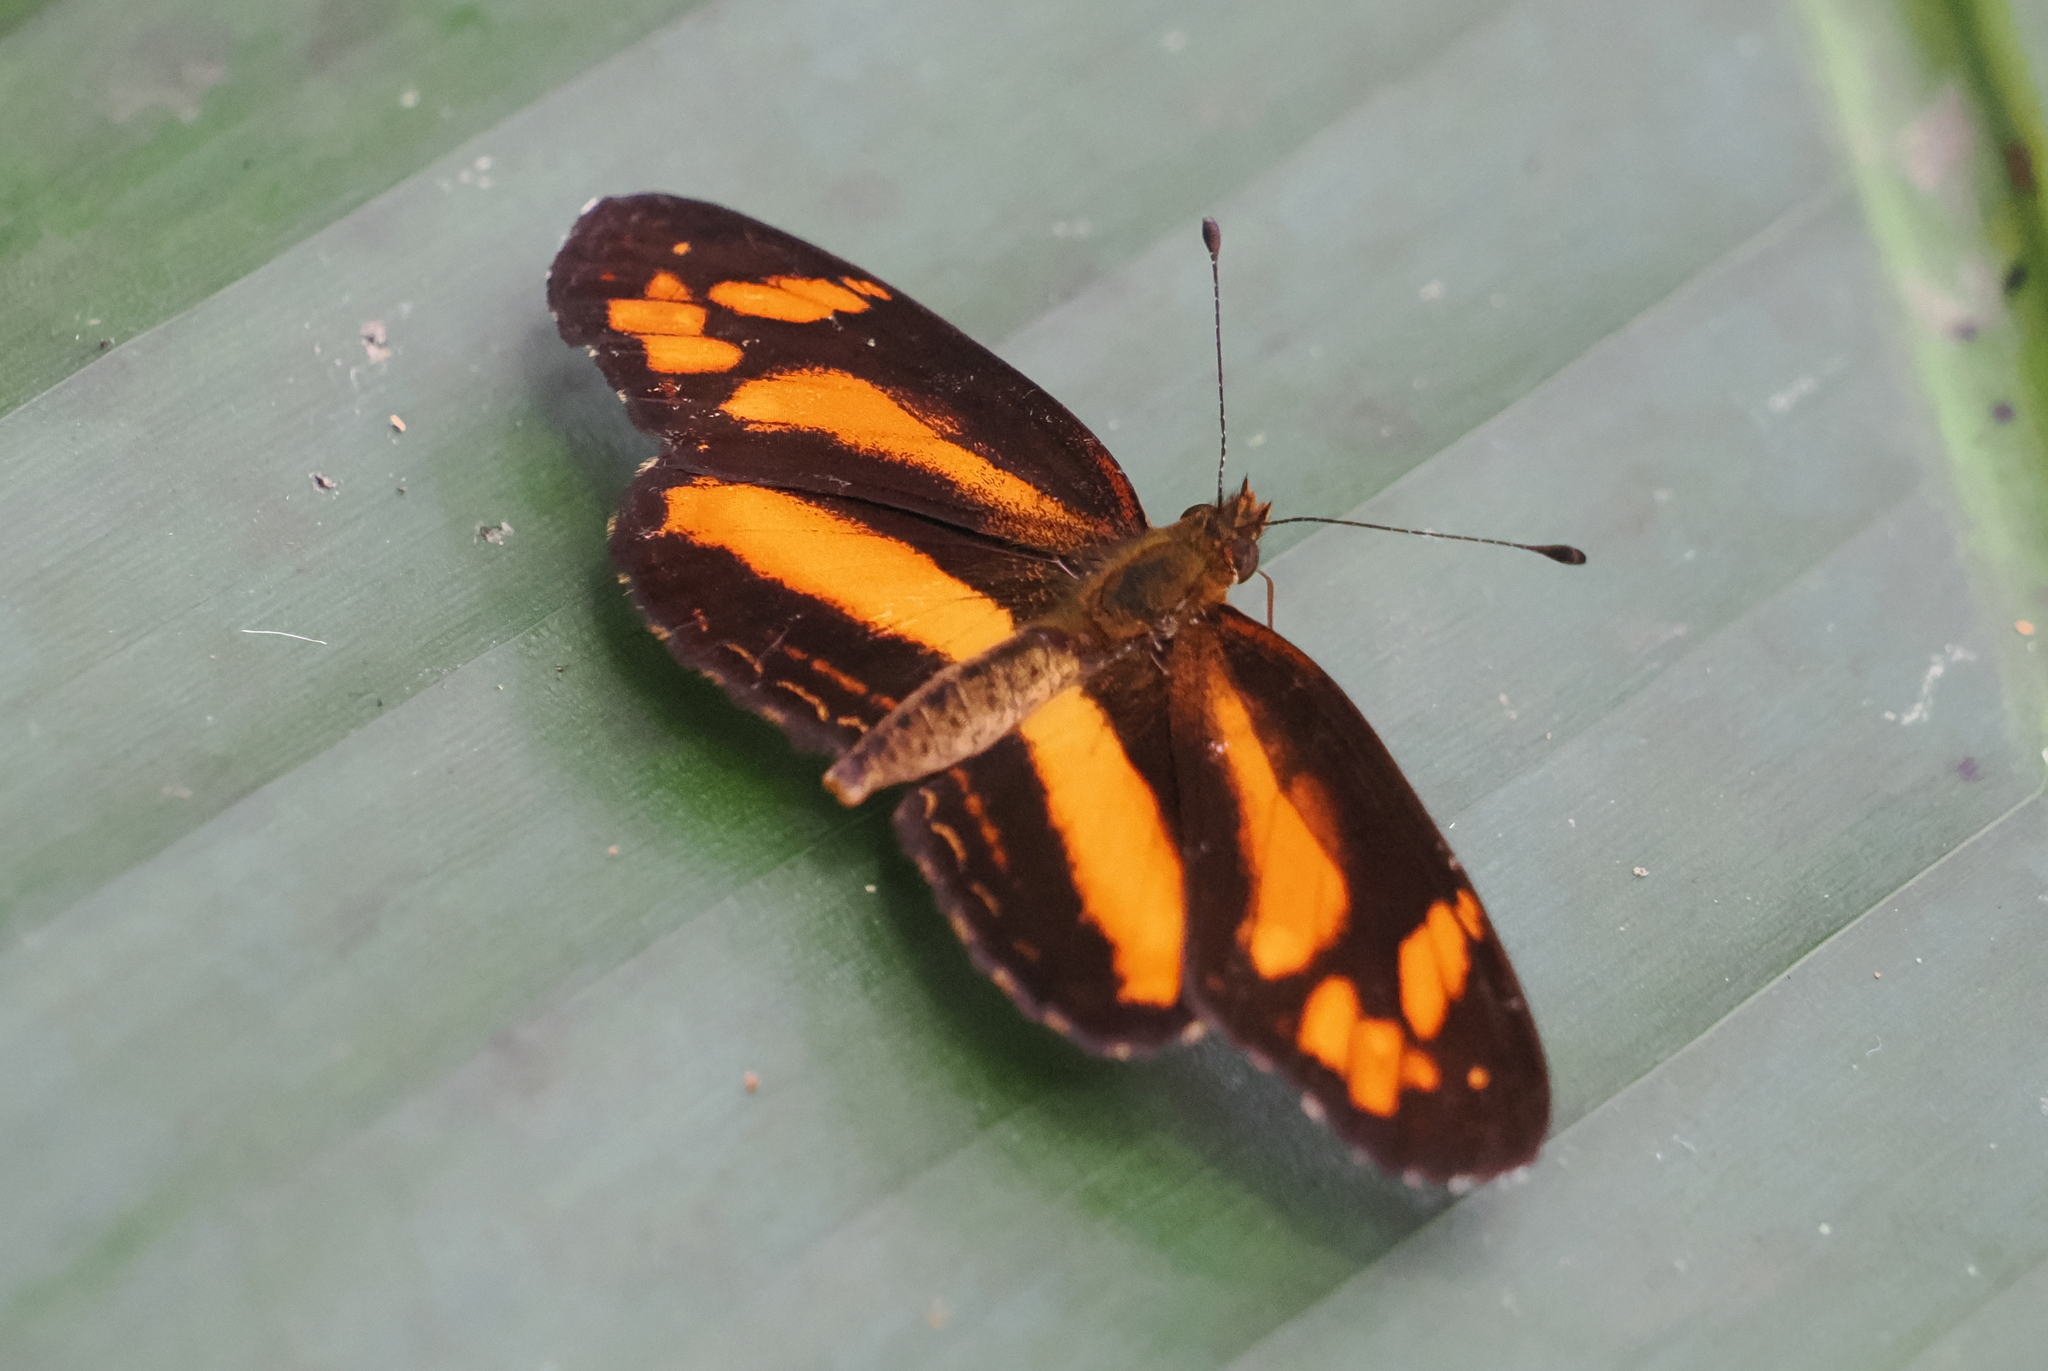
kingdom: Animalia
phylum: Arthropoda
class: Insecta
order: Lepidoptera
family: Nymphalidae
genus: Castilia
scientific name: Castilia eranites
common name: Smudged crescent
